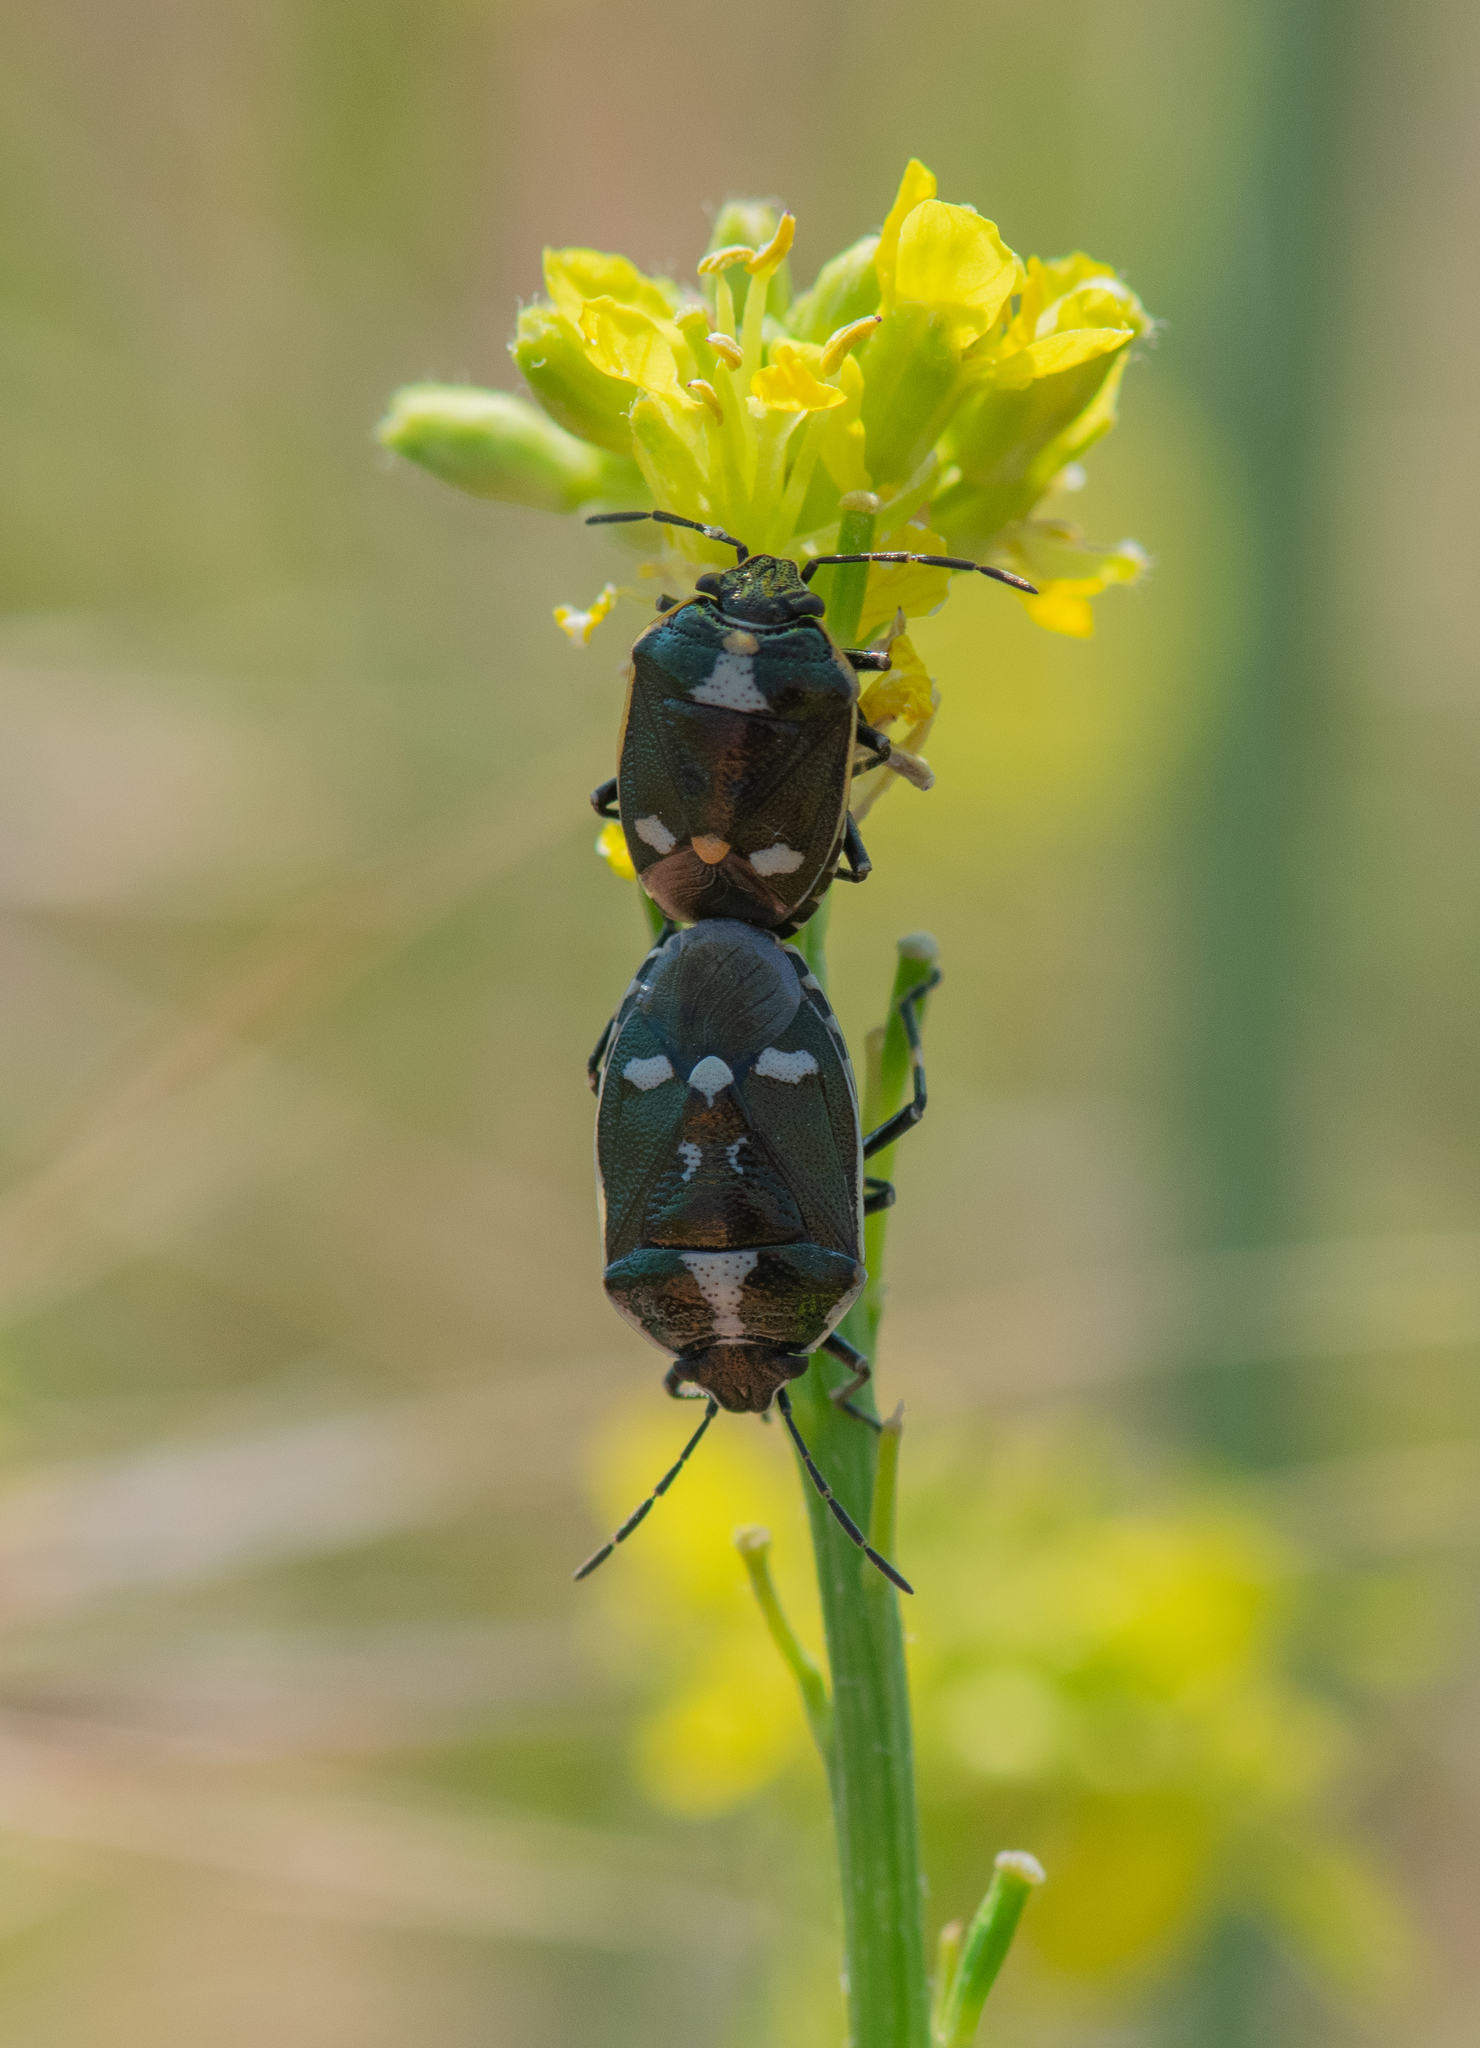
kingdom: Animalia
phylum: Arthropoda
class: Insecta
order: Hemiptera
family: Pentatomidae
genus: Eurydema
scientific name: Eurydema oleracea
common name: Cabbage bug
